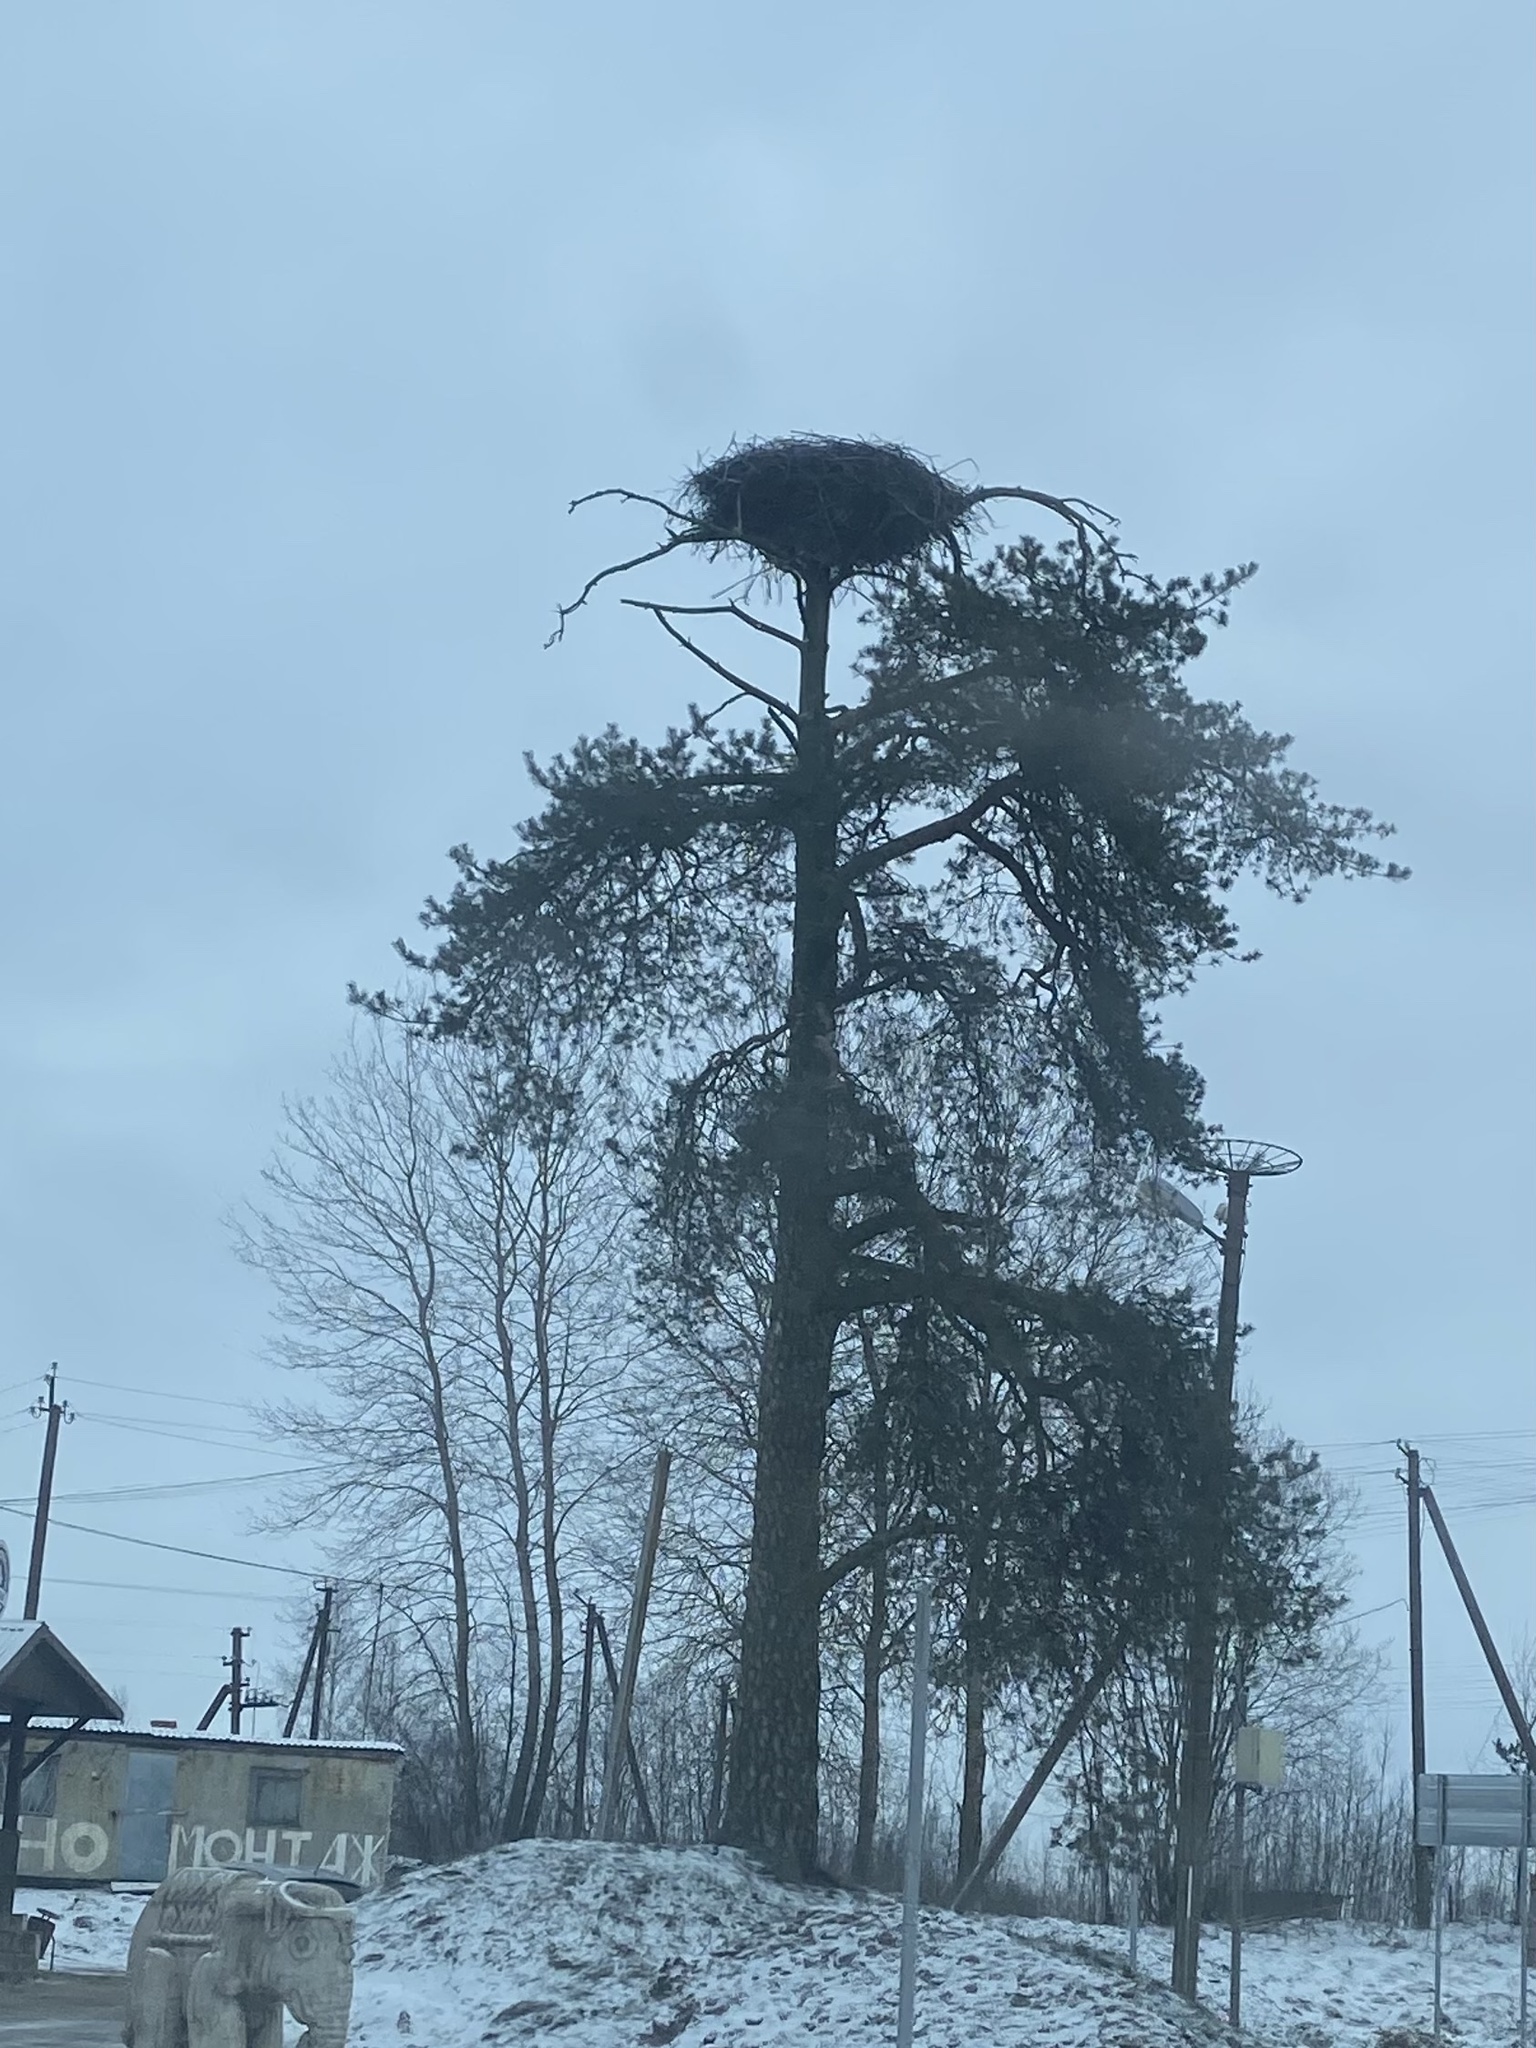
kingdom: Animalia
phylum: Chordata
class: Aves
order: Ciconiiformes
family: Ciconiidae
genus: Ciconia
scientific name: Ciconia ciconia
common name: White stork
